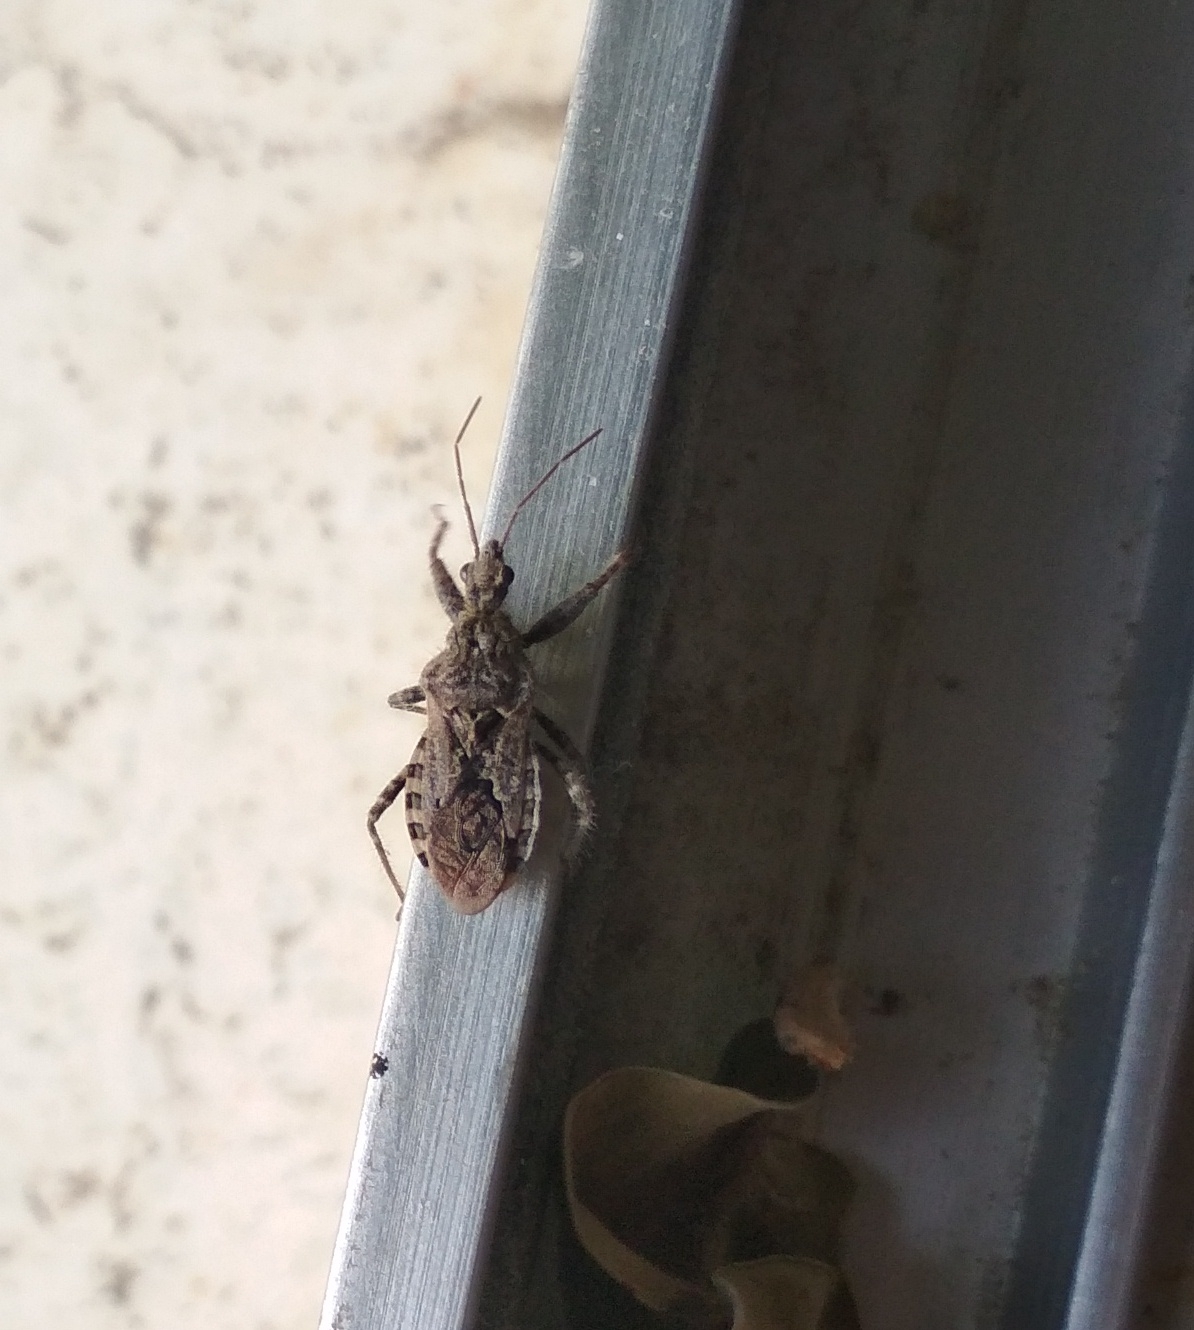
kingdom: Animalia
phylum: Arthropoda
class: Insecta
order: Hemiptera
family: Reduviidae
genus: Coranus
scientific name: Coranus griseus
